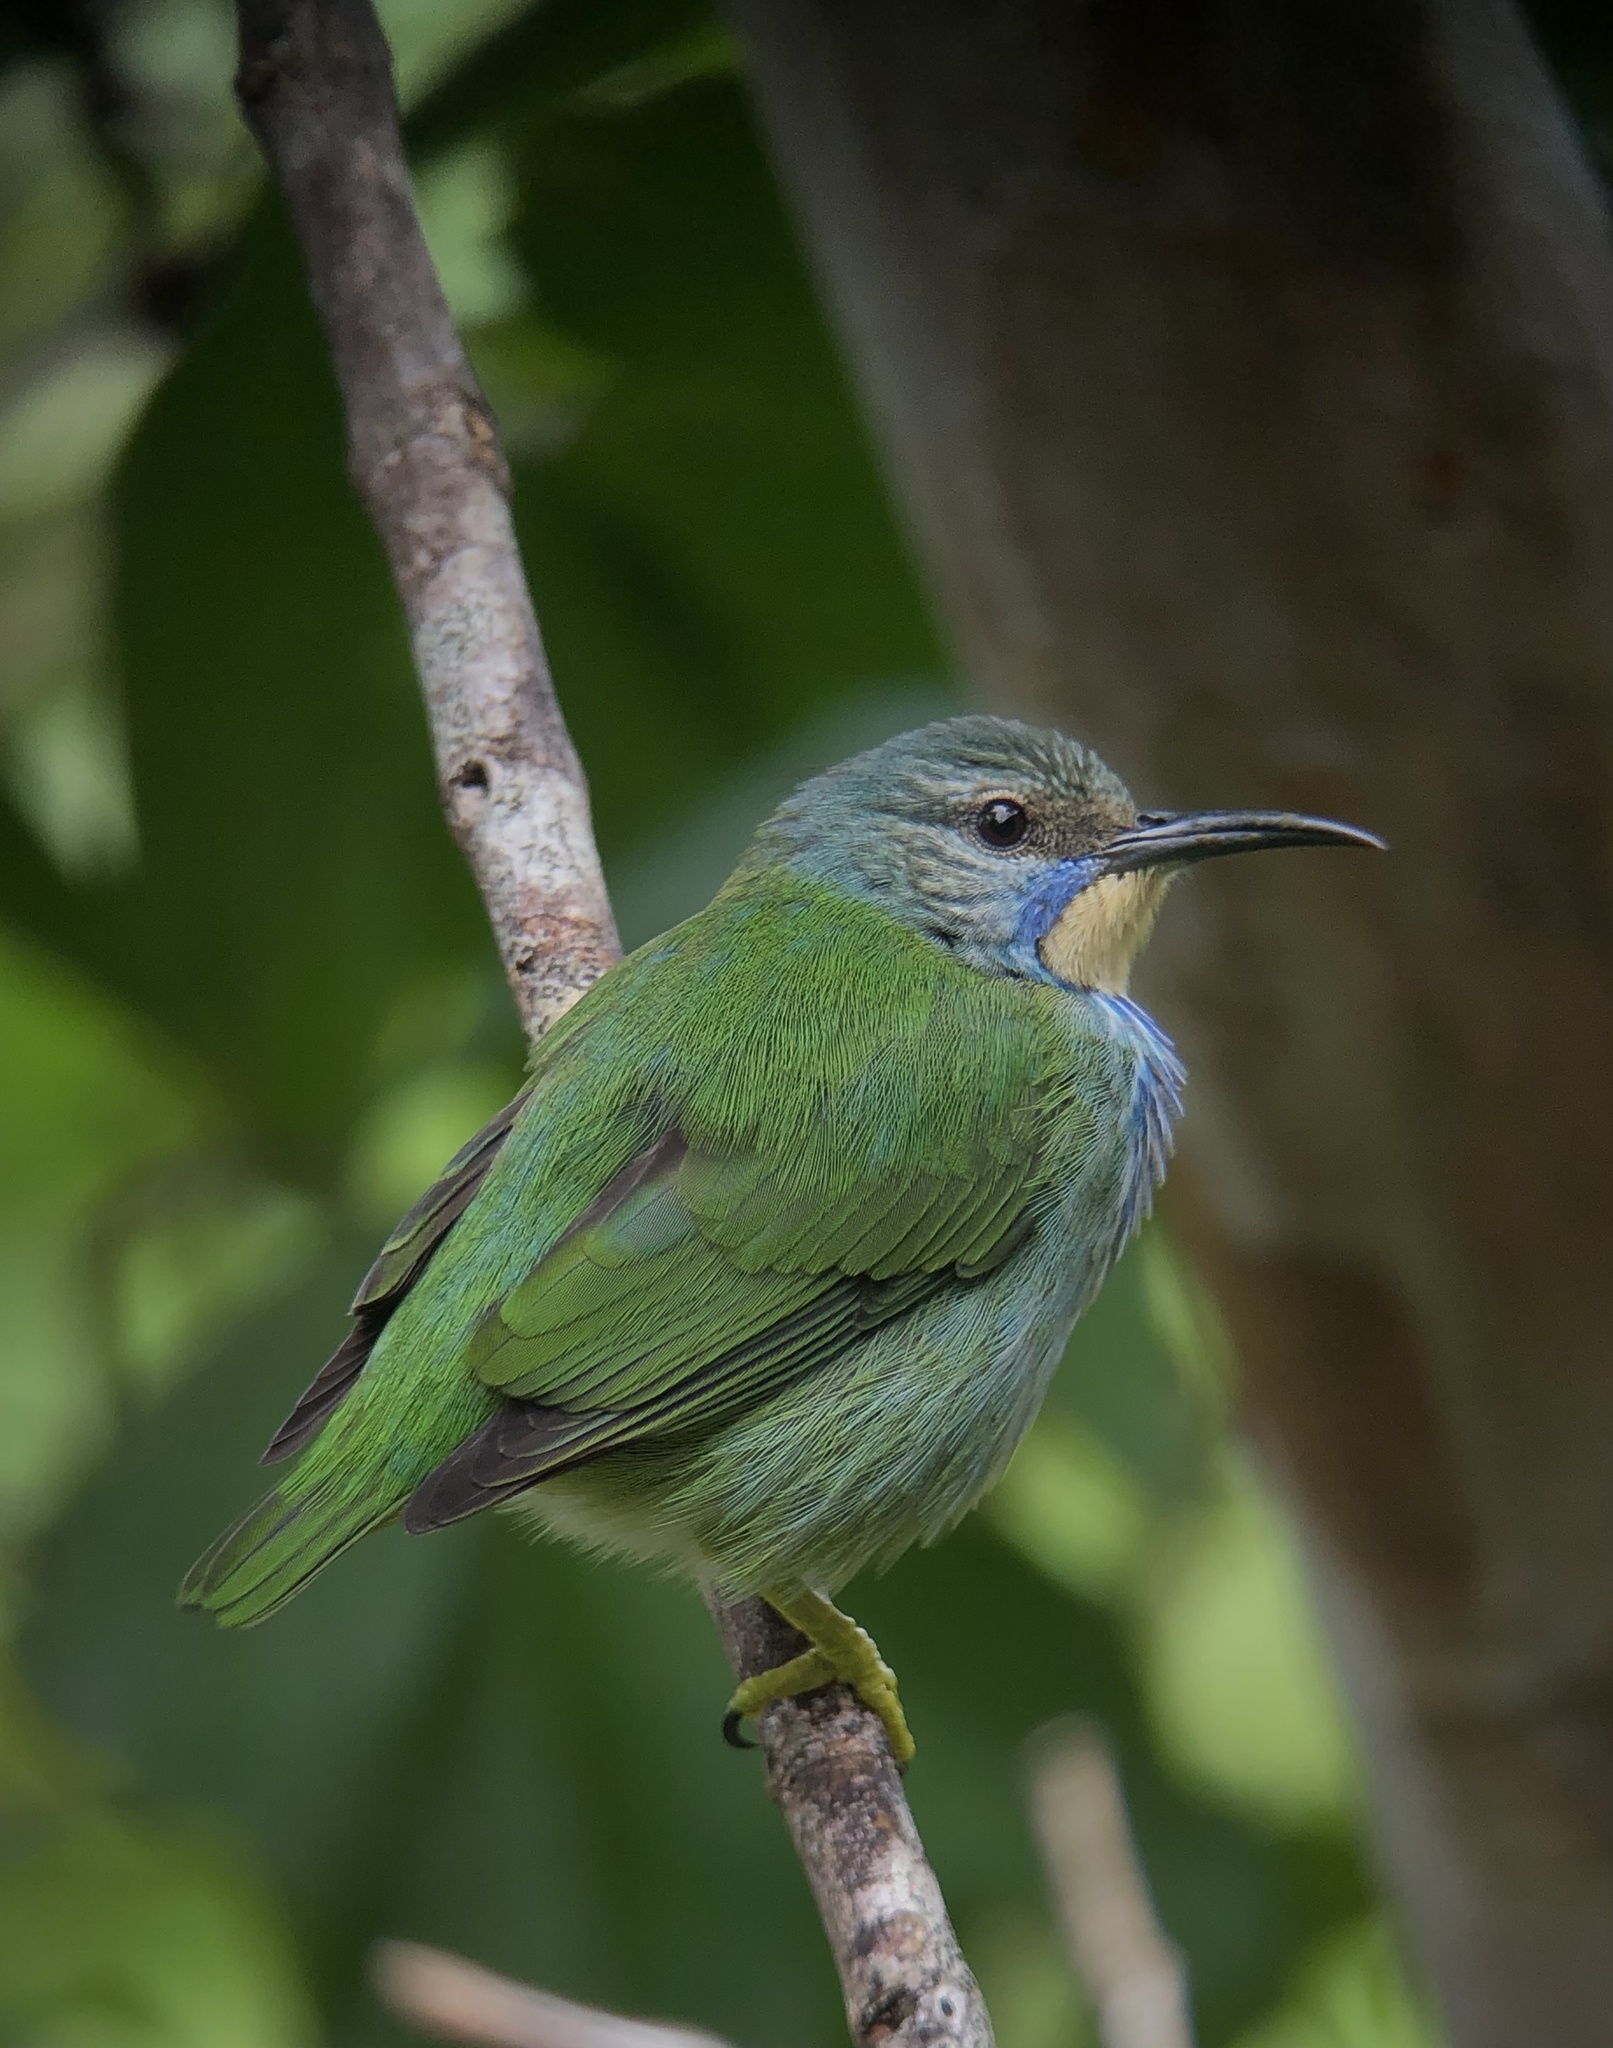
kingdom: Animalia
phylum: Chordata
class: Aves
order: Passeriformes
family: Thraupidae
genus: Cyanerpes
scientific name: Cyanerpes lucidus
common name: Shining honeycreeper
